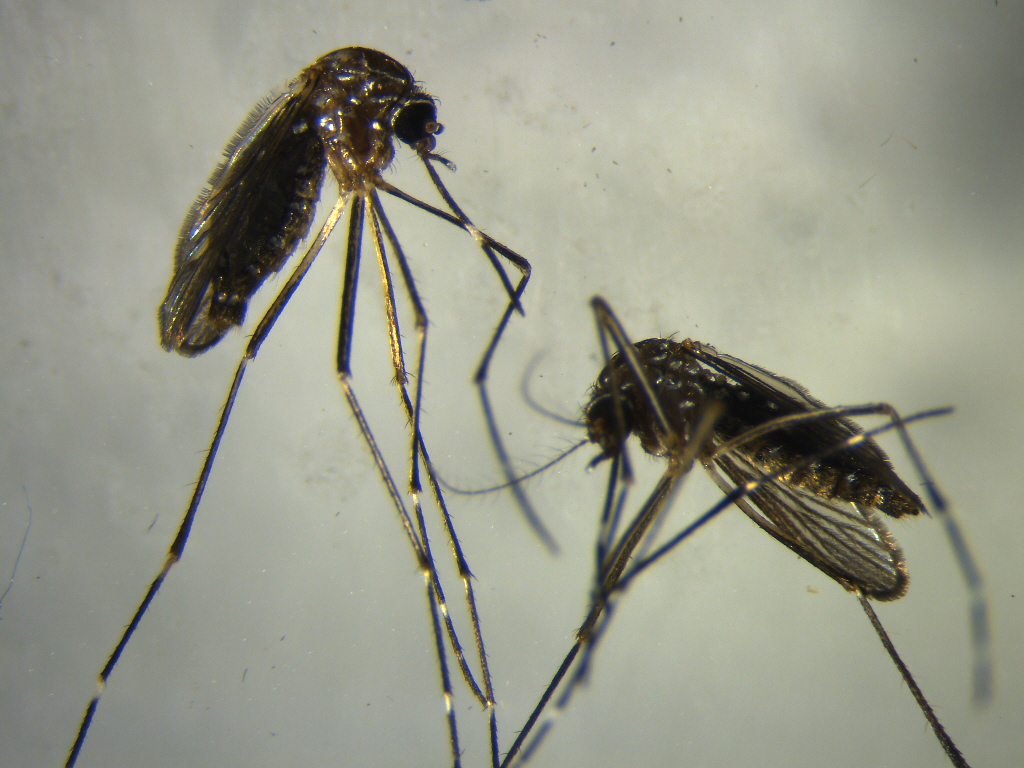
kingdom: Animalia
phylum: Arthropoda
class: Insecta
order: Diptera
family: Culicidae
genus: Aedes
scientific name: Aedes notoscriptus
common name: Australian backyard mosquito
